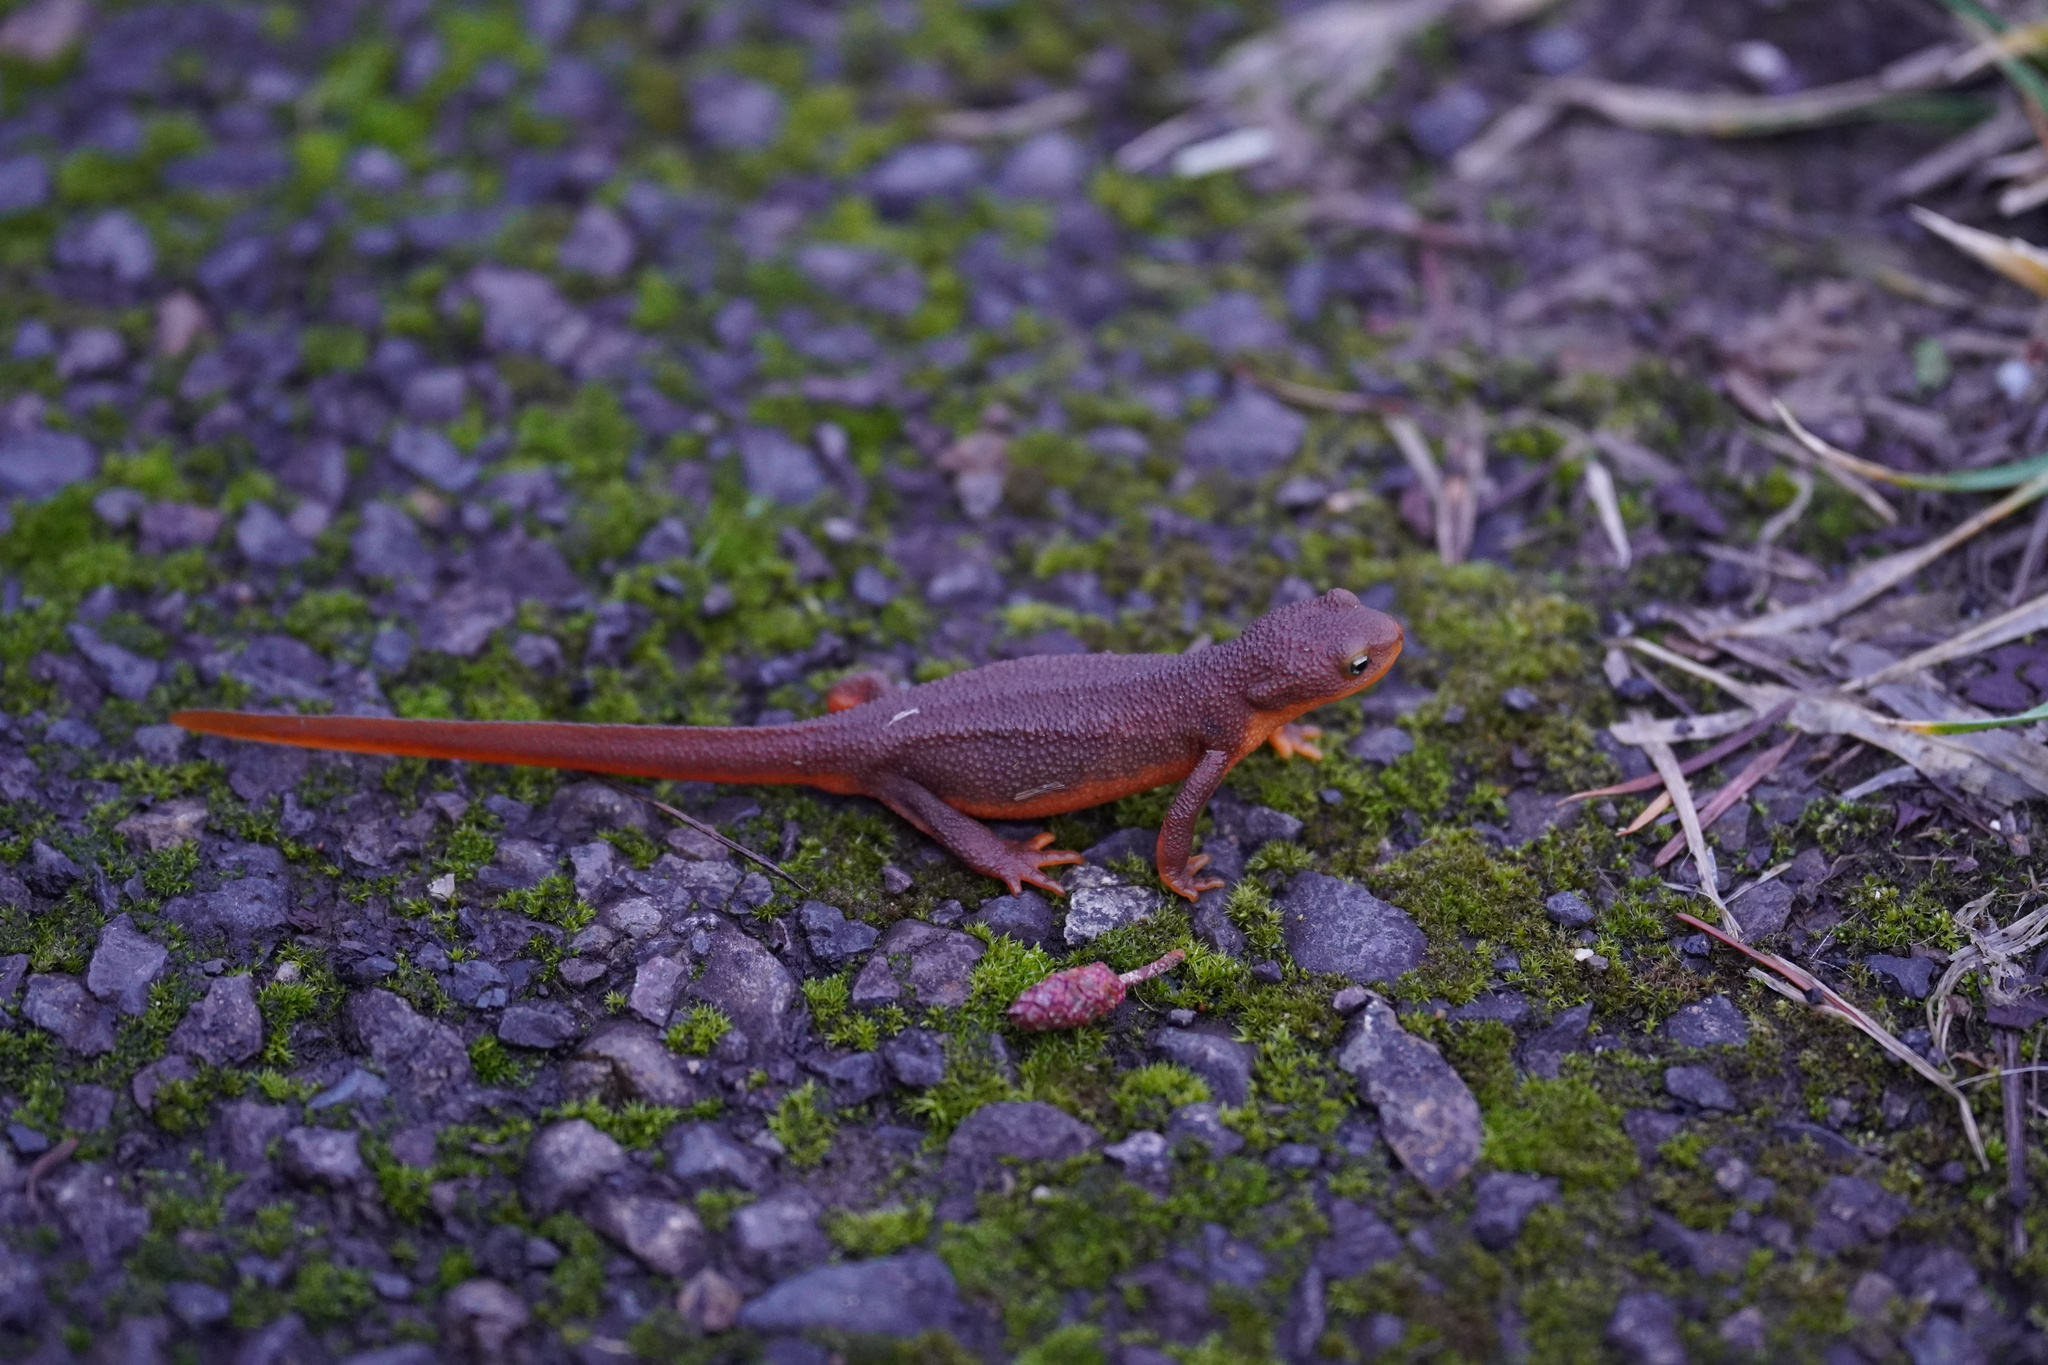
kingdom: Animalia
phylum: Chordata
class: Amphibia
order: Caudata
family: Salamandridae
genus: Taricha
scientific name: Taricha granulosa
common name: Roughskin newt
